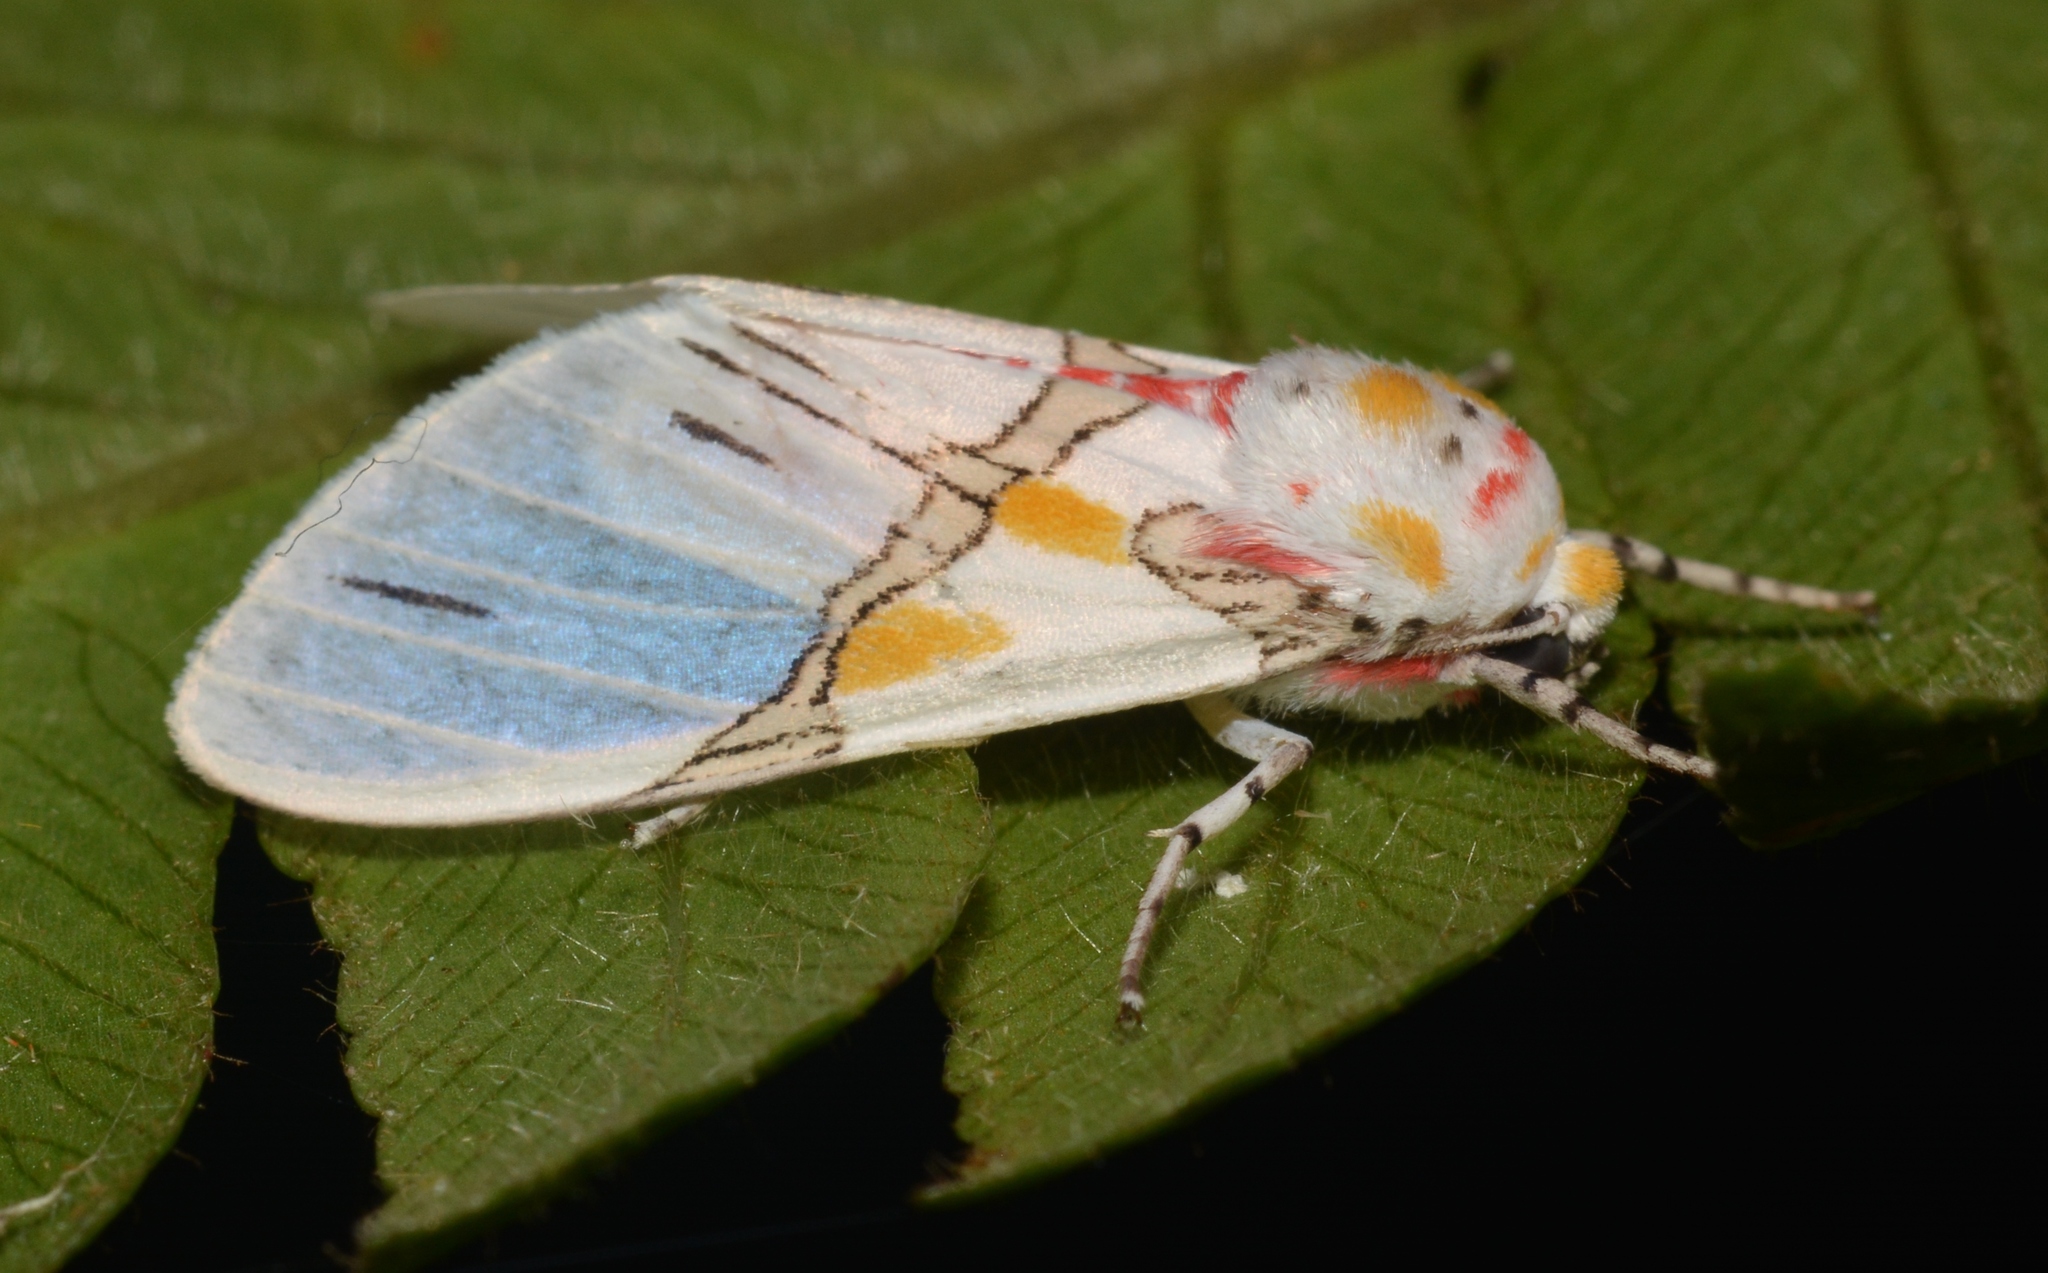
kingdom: Animalia
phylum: Arthropoda
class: Insecta
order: Lepidoptera
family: Erebidae
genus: Idalus
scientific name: Idalus crinis
